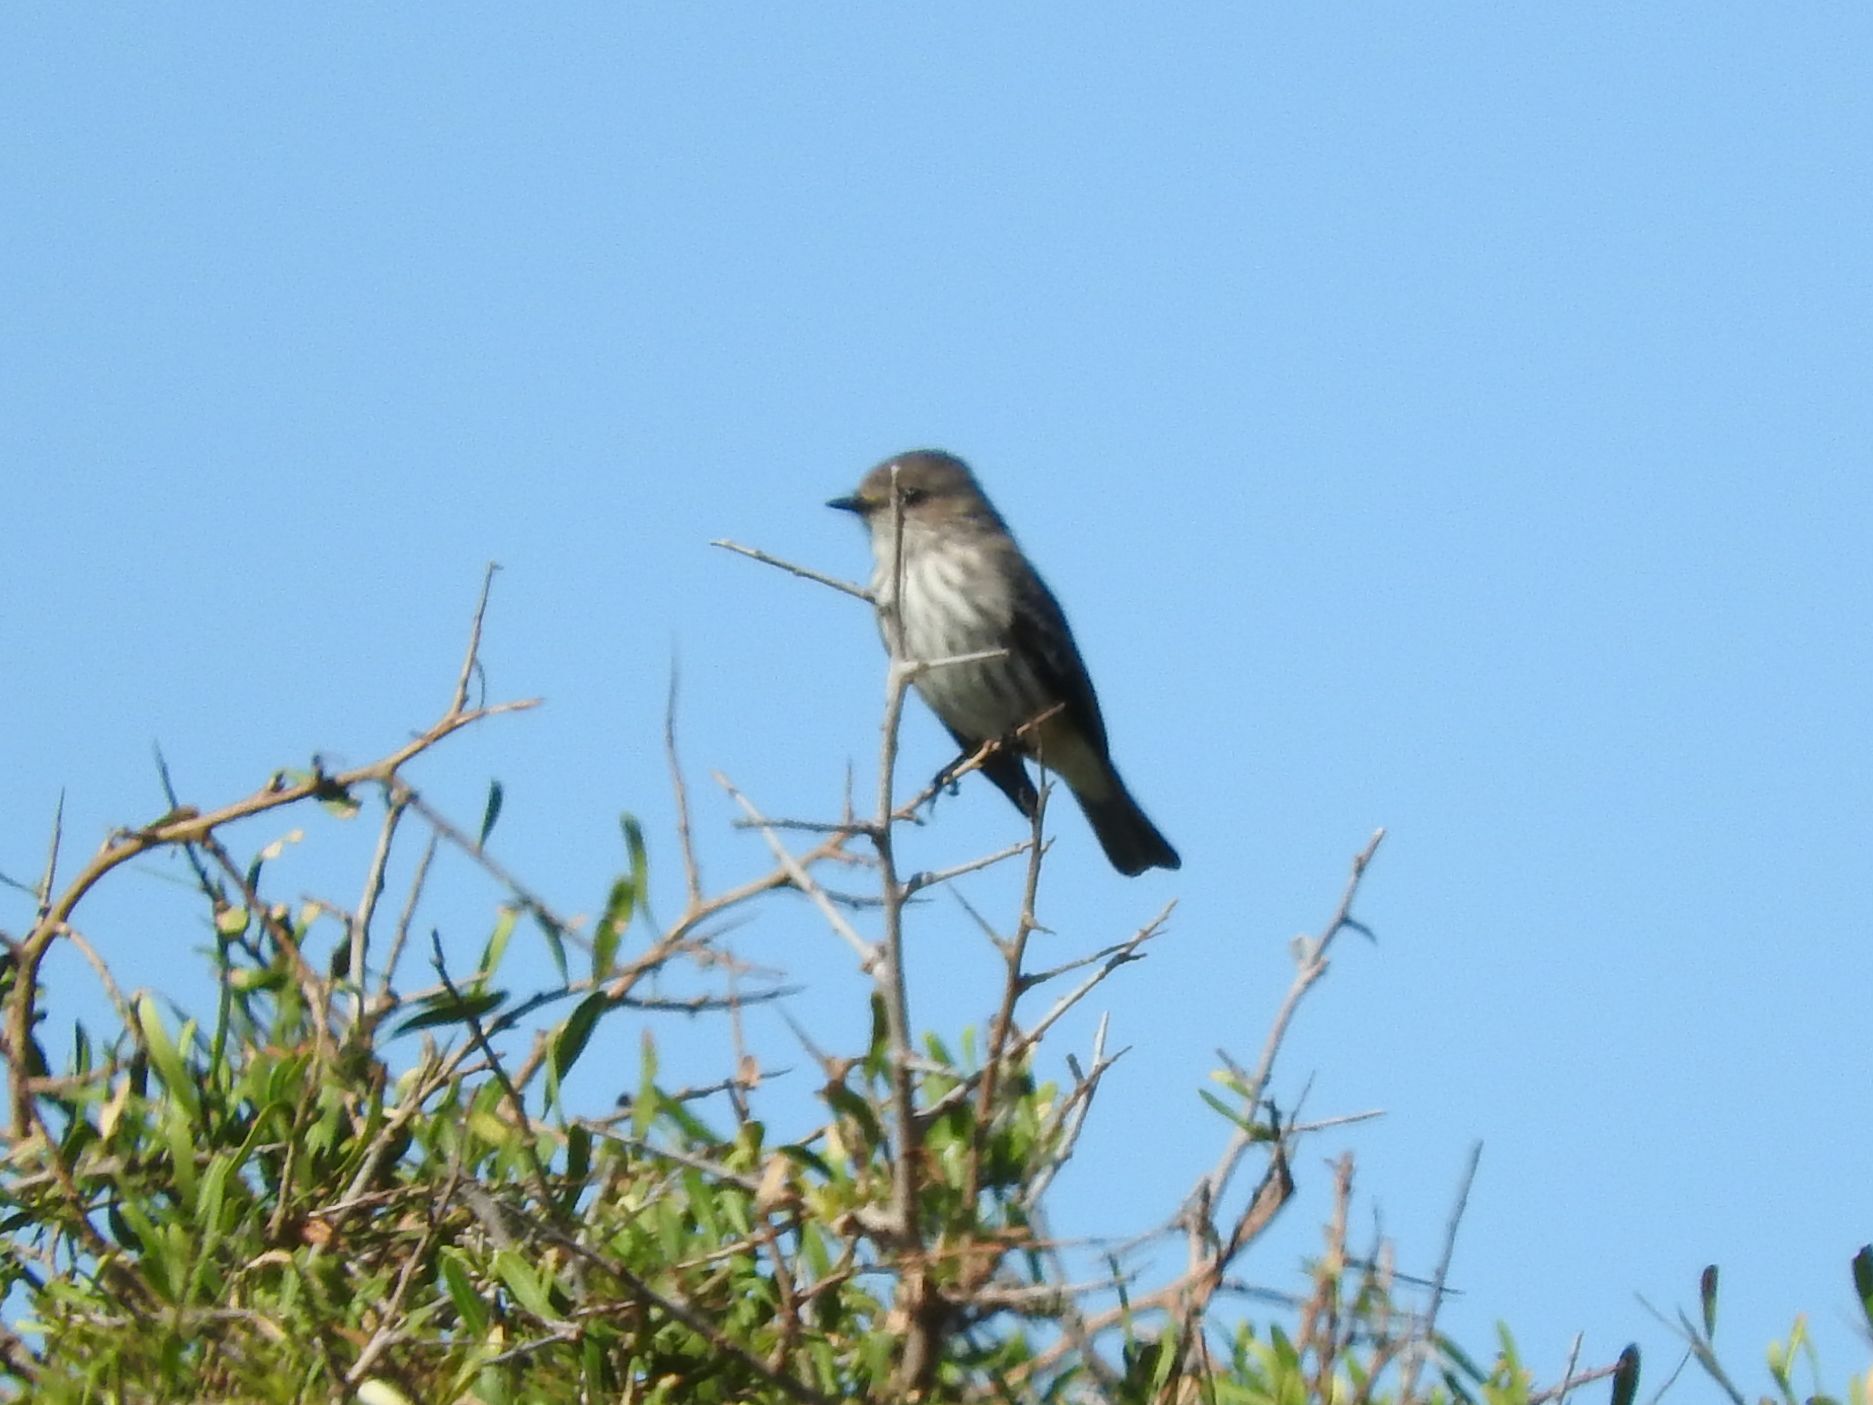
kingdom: Animalia
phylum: Chordata
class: Aves
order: Passeriformes
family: Tyrannidae
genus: Pyrocephalus
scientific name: Pyrocephalus rubinus
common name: Vermilion flycatcher
